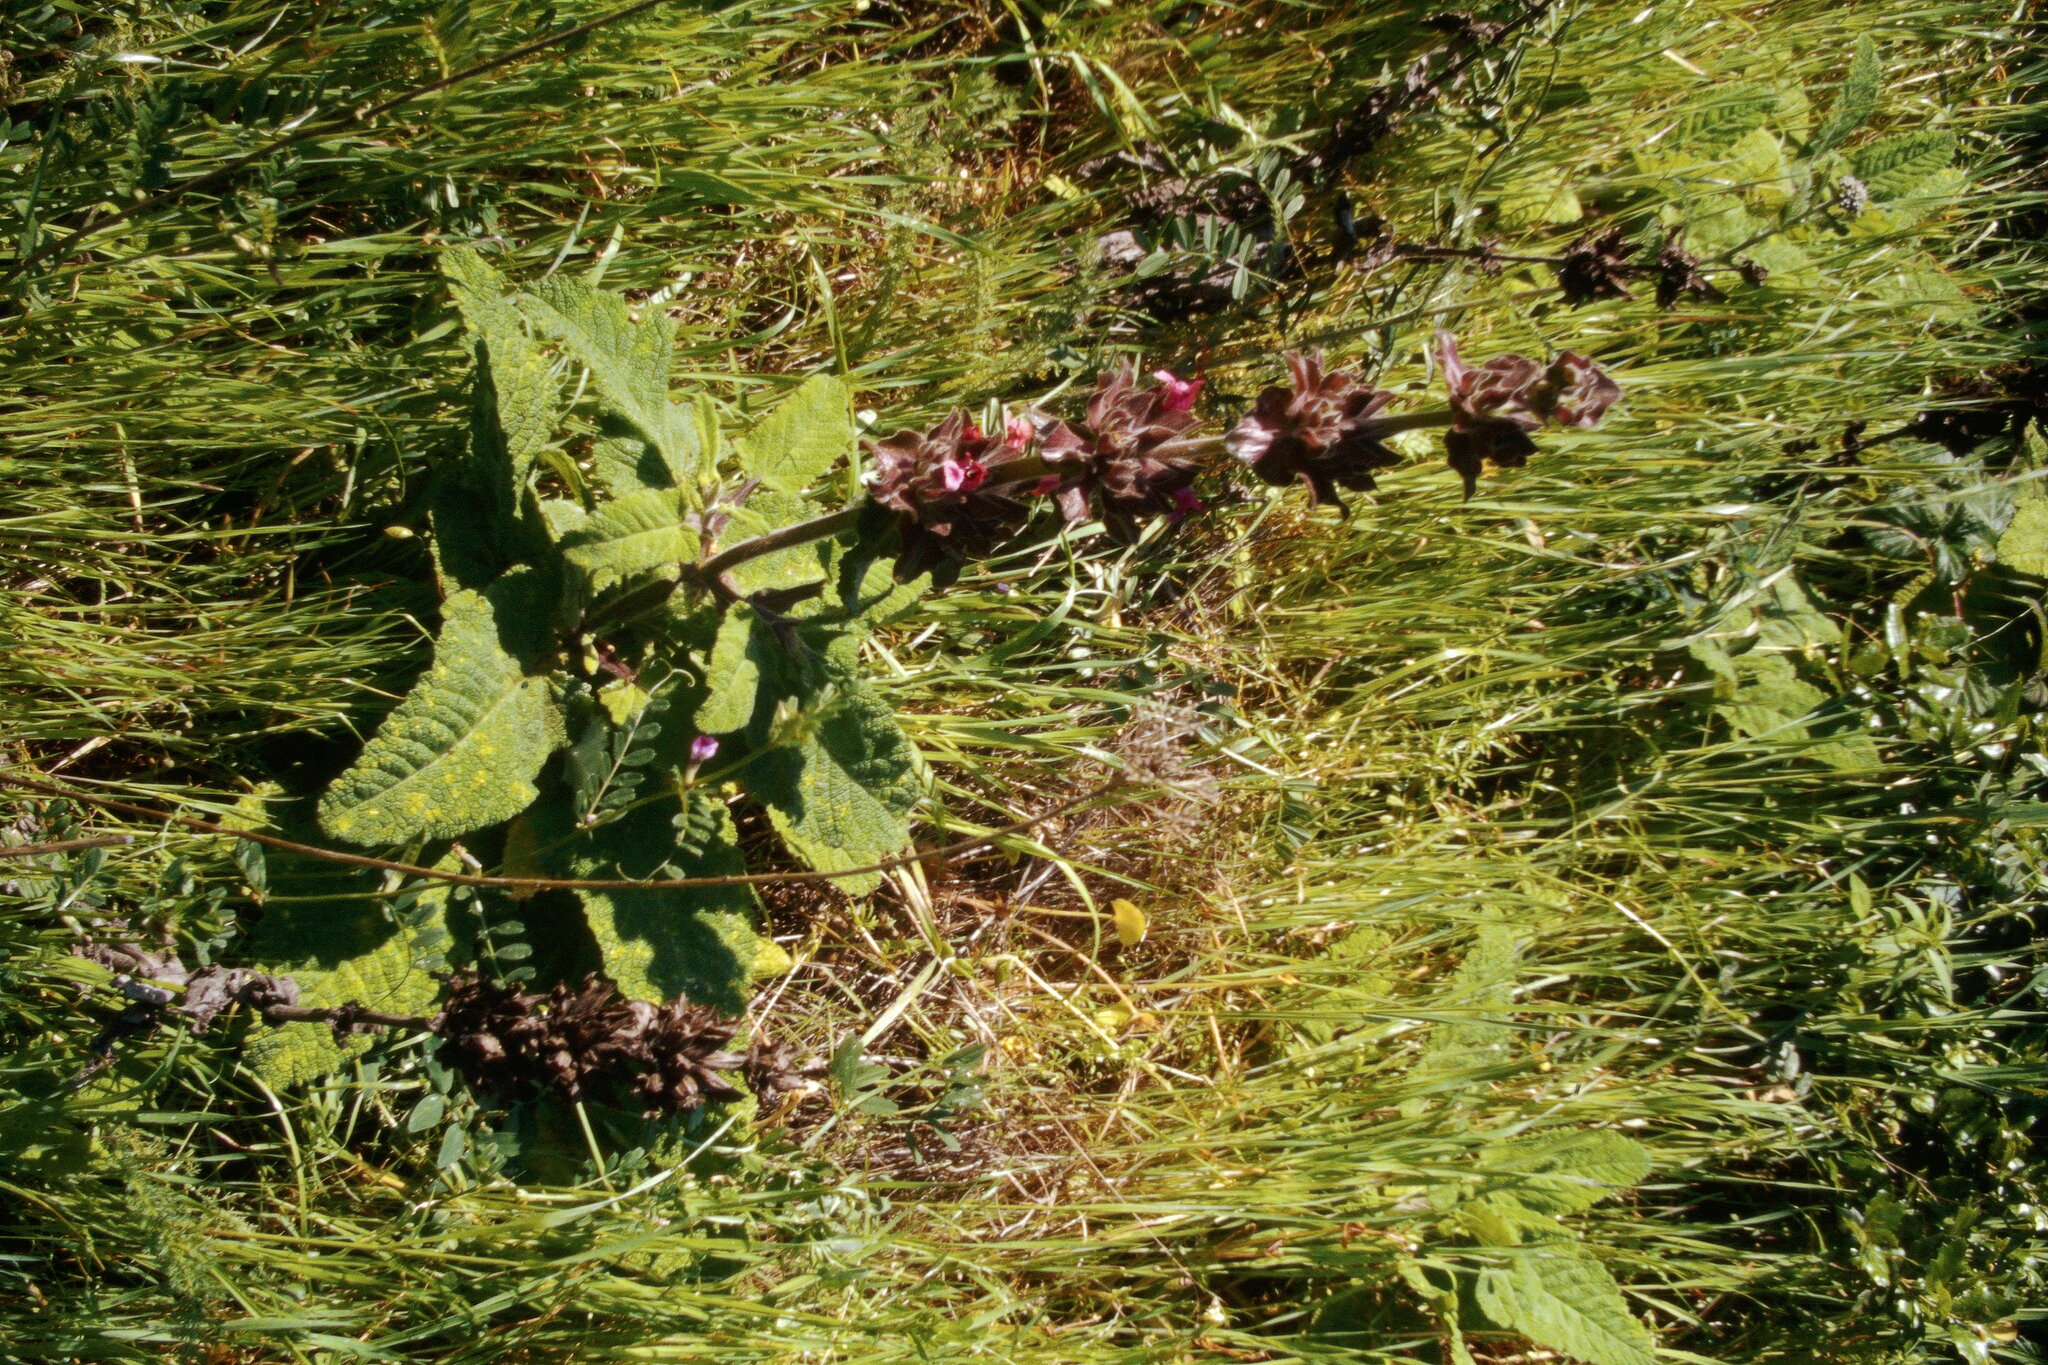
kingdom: Plantae
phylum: Tracheophyta
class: Magnoliopsida
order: Lamiales
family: Lamiaceae
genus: Salvia
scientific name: Salvia spathacea
